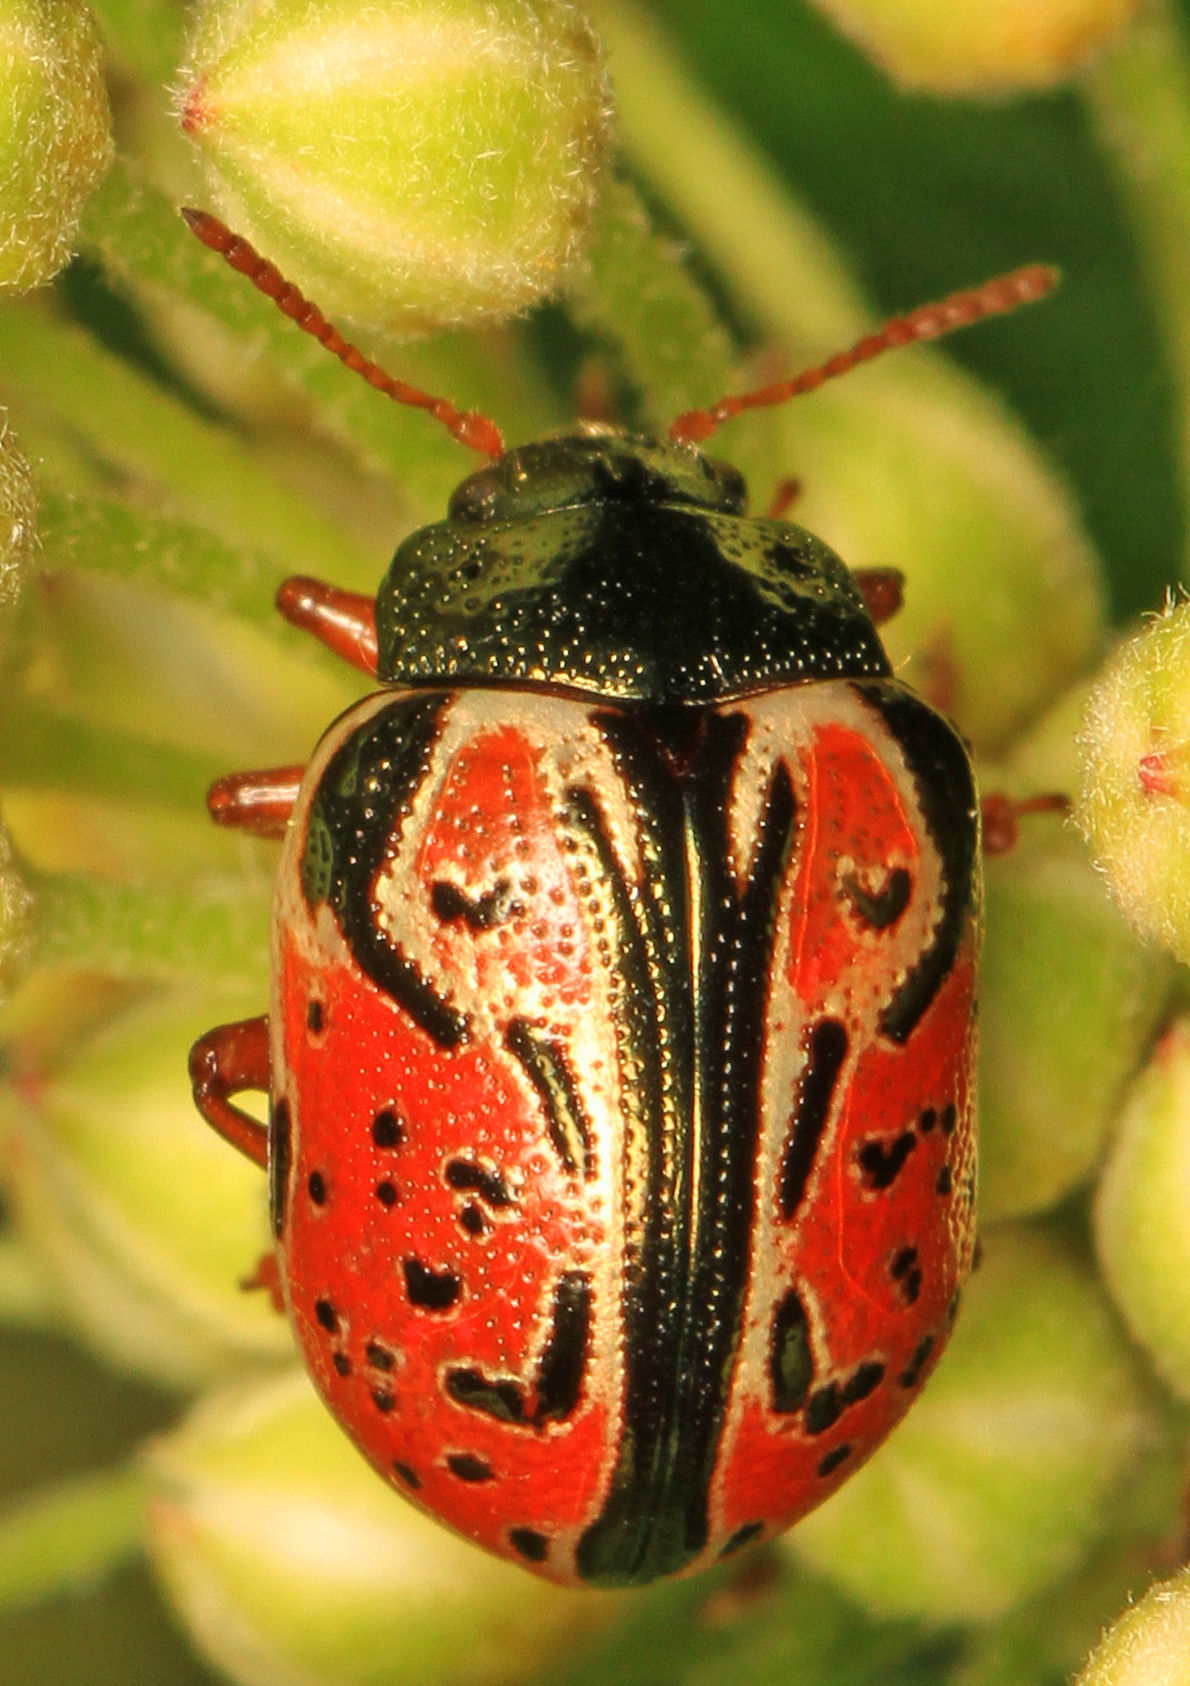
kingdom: Animalia
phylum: Arthropoda
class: Insecta
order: Coleoptera
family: Chrysomelidae
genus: Calligrapha
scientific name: Calligrapha spiraeae
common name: Ninebark calligrapha beetle
